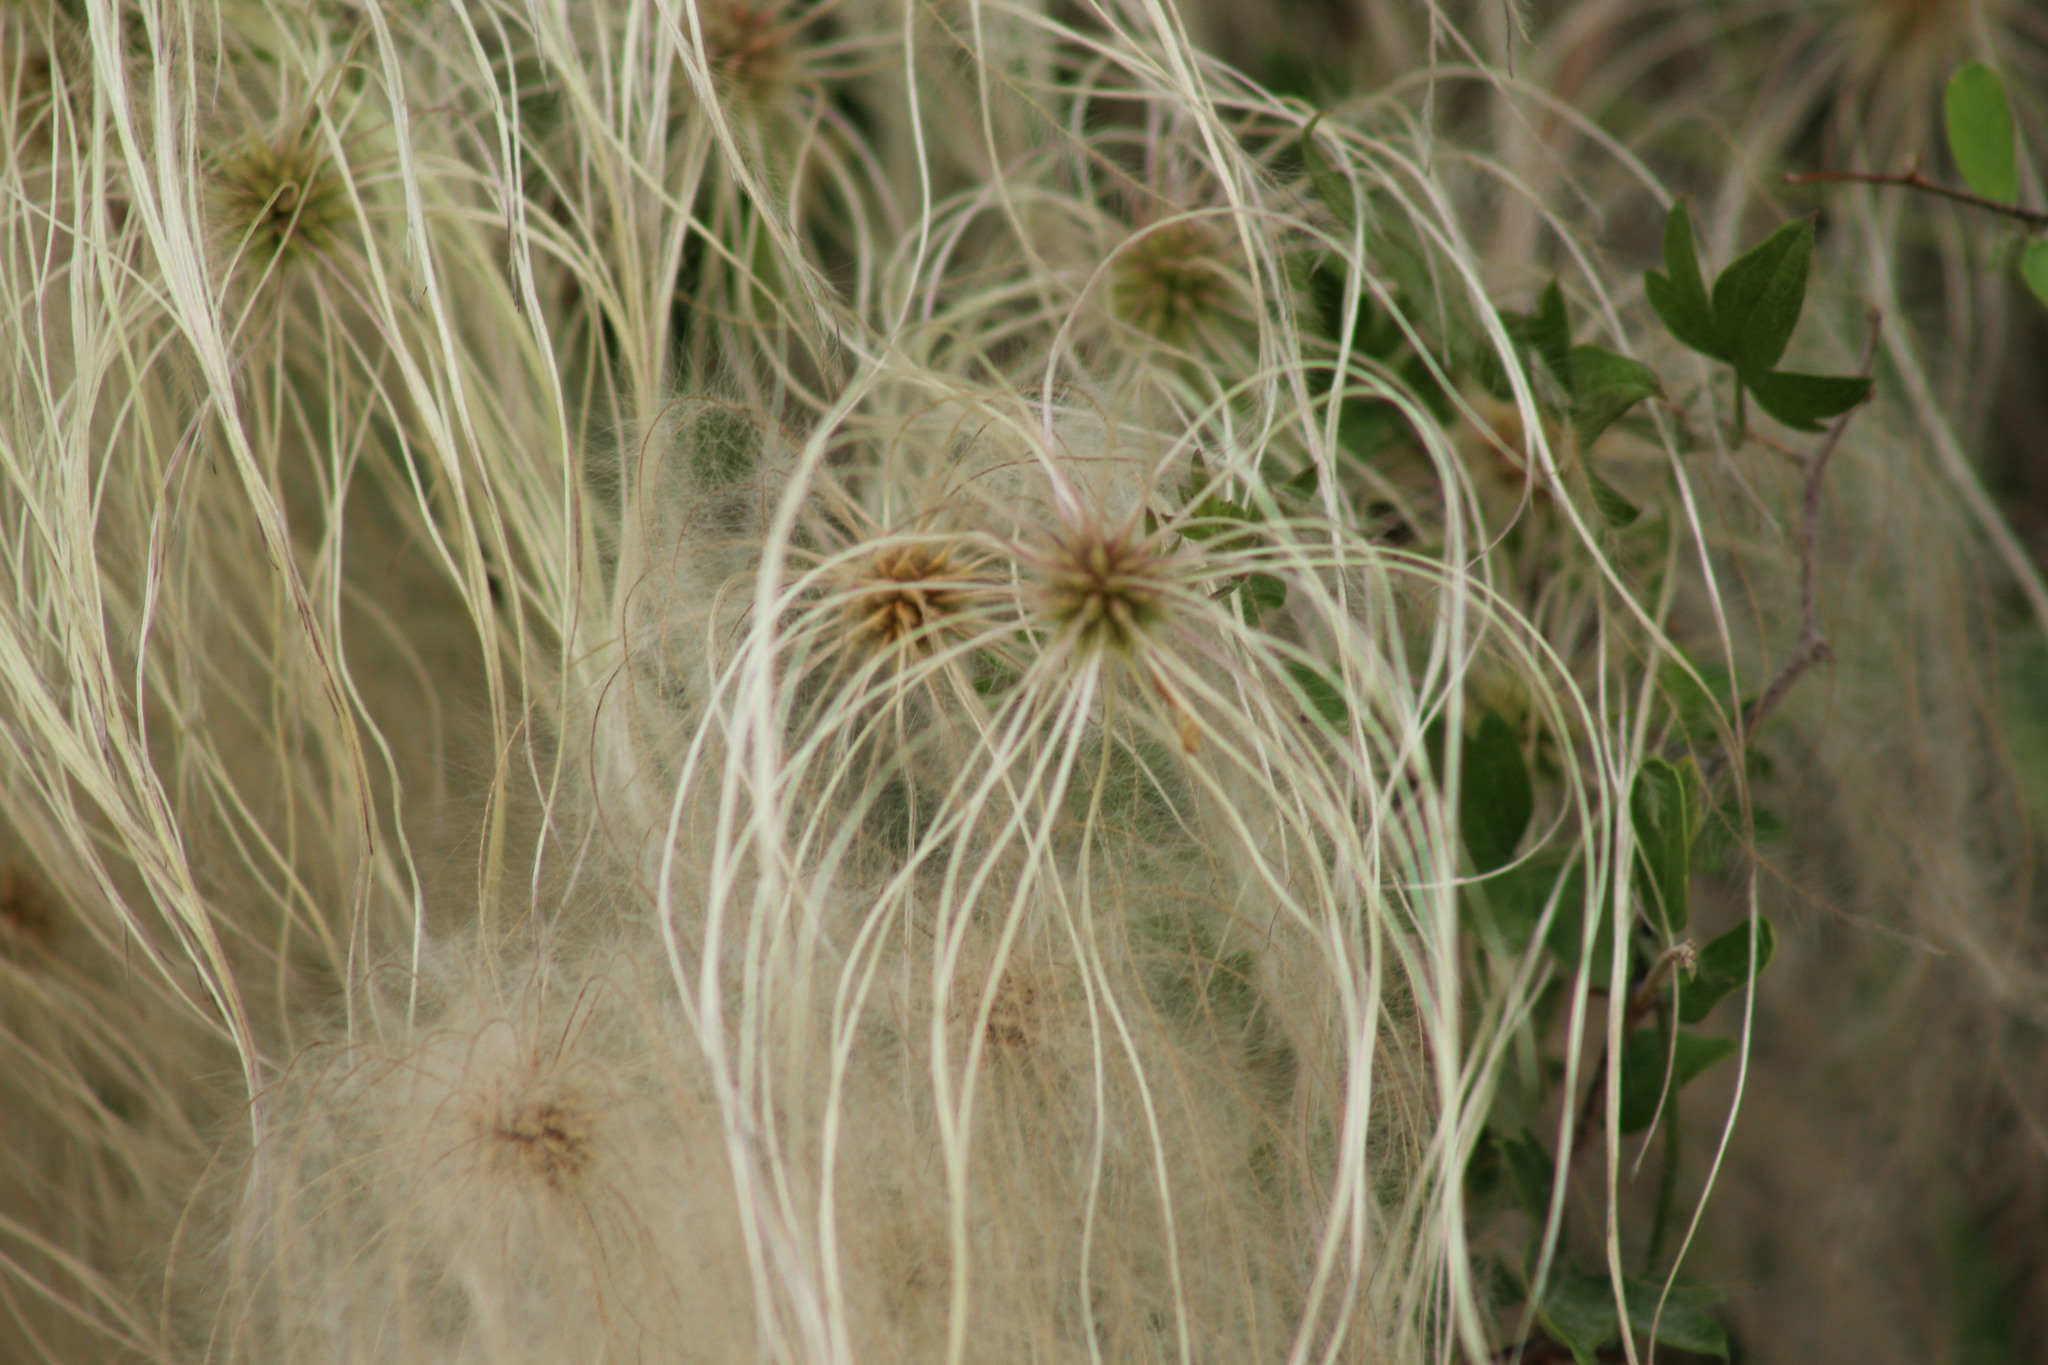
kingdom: Plantae
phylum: Tracheophyta
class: Magnoliopsida
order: Ranunculales
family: Ranunculaceae
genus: Clematis
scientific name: Clematis drummondii
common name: Texas virgin's bower
